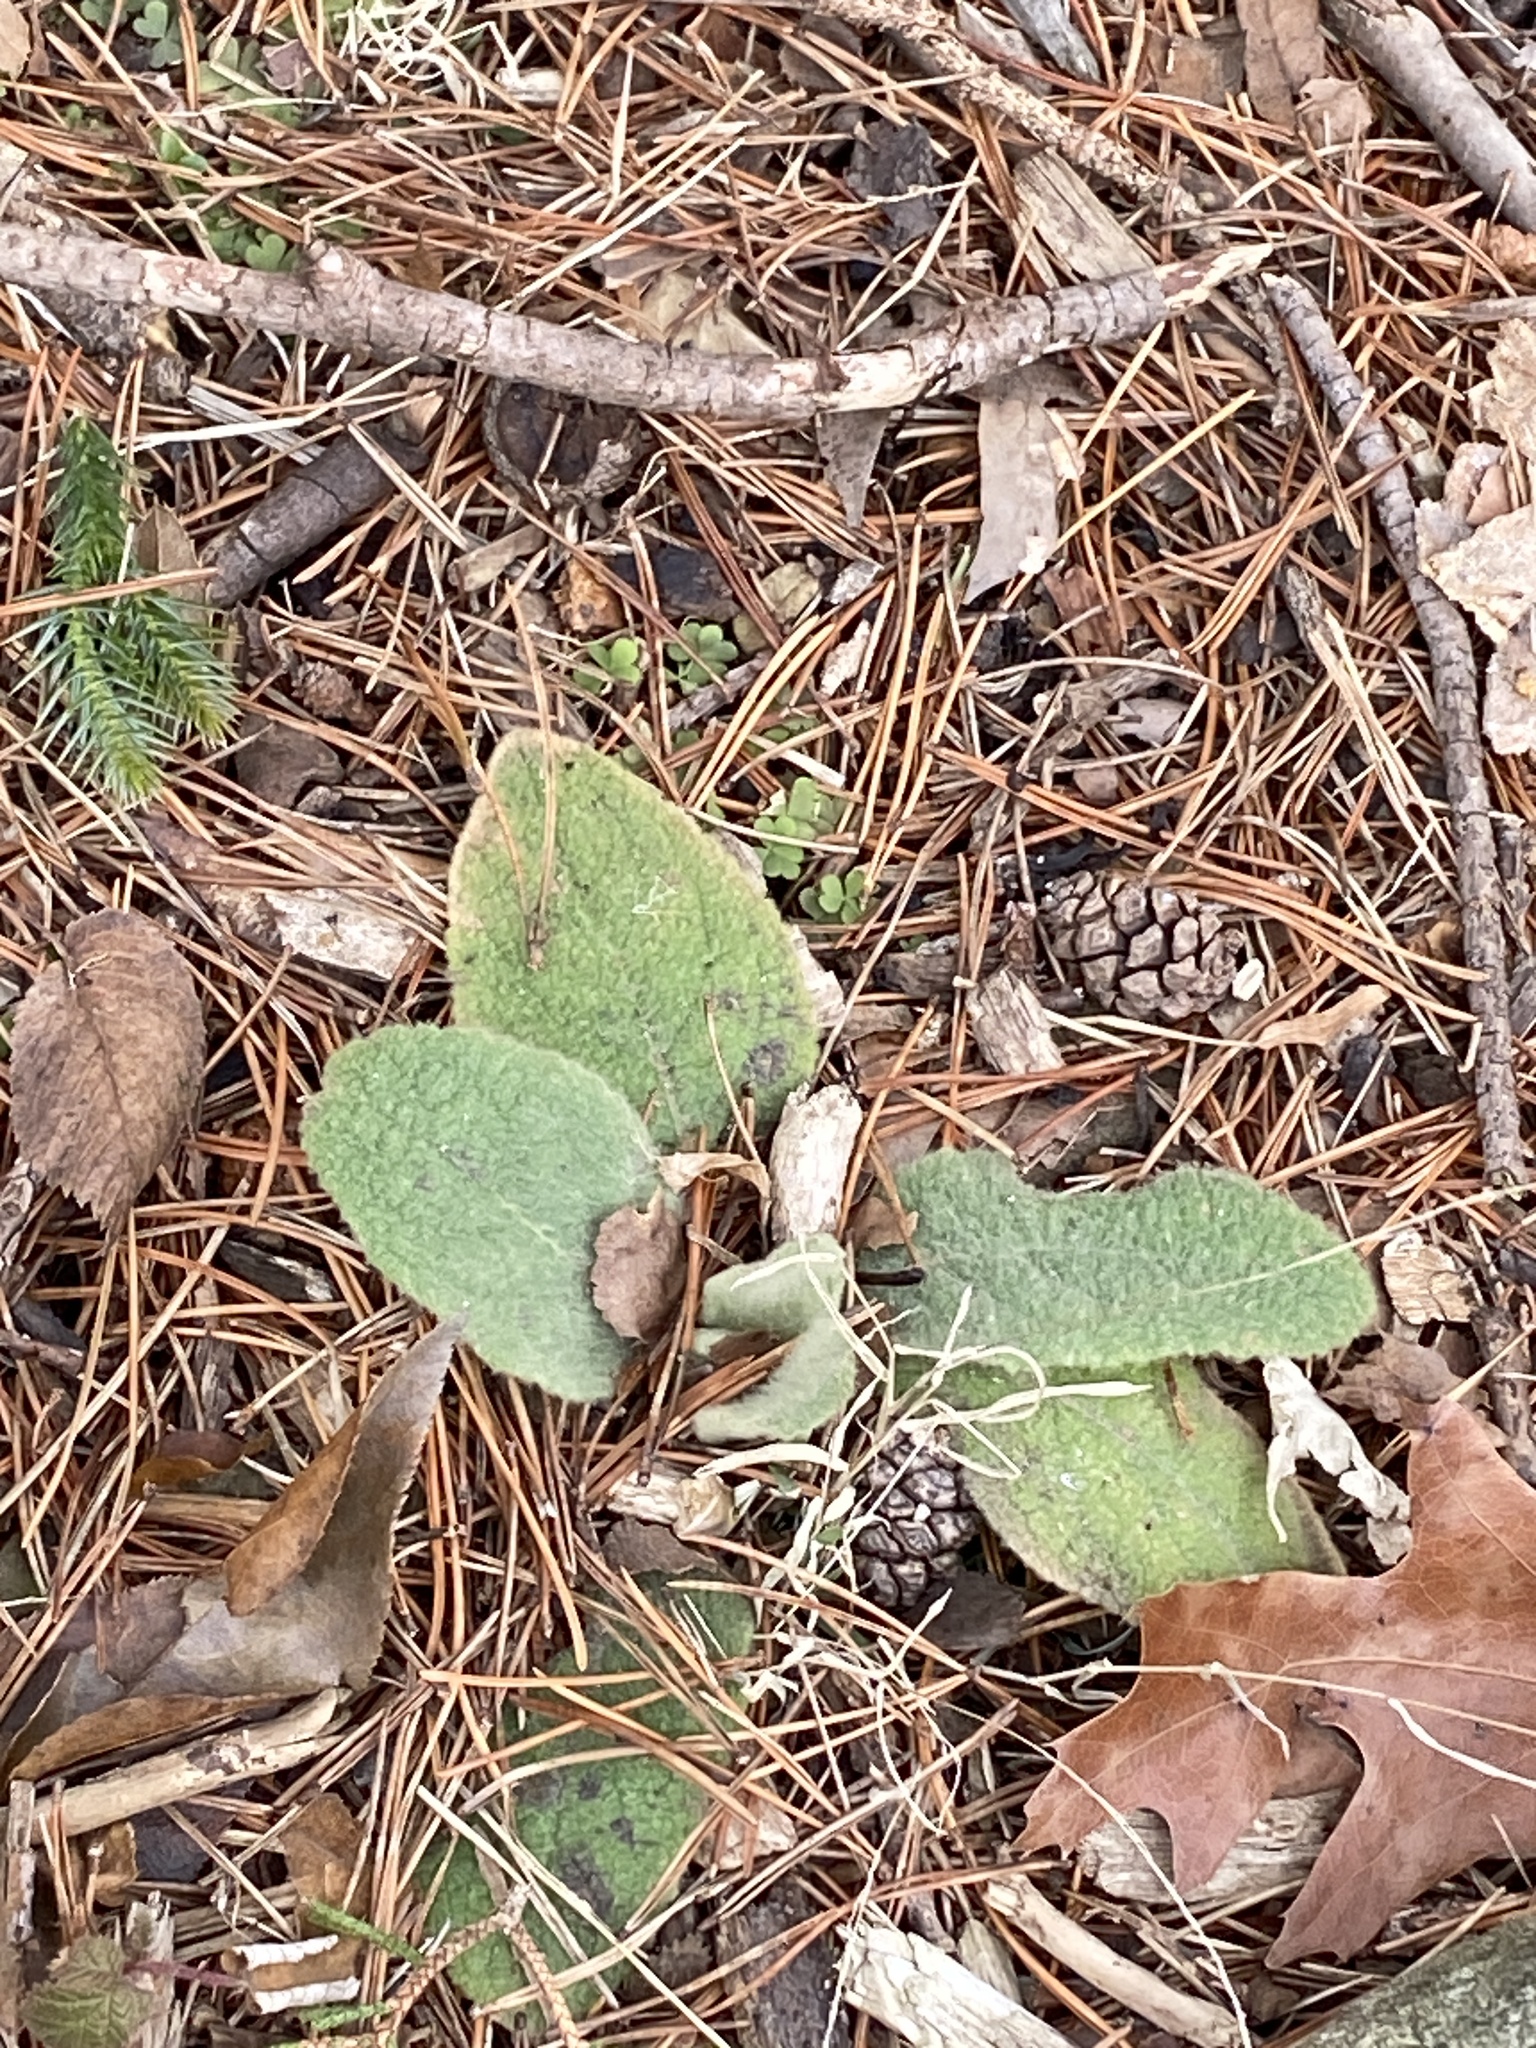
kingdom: Plantae
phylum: Tracheophyta
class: Magnoliopsida
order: Lamiales
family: Scrophulariaceae
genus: Verbascum
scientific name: Verbascum thapsus
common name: Common mullein
